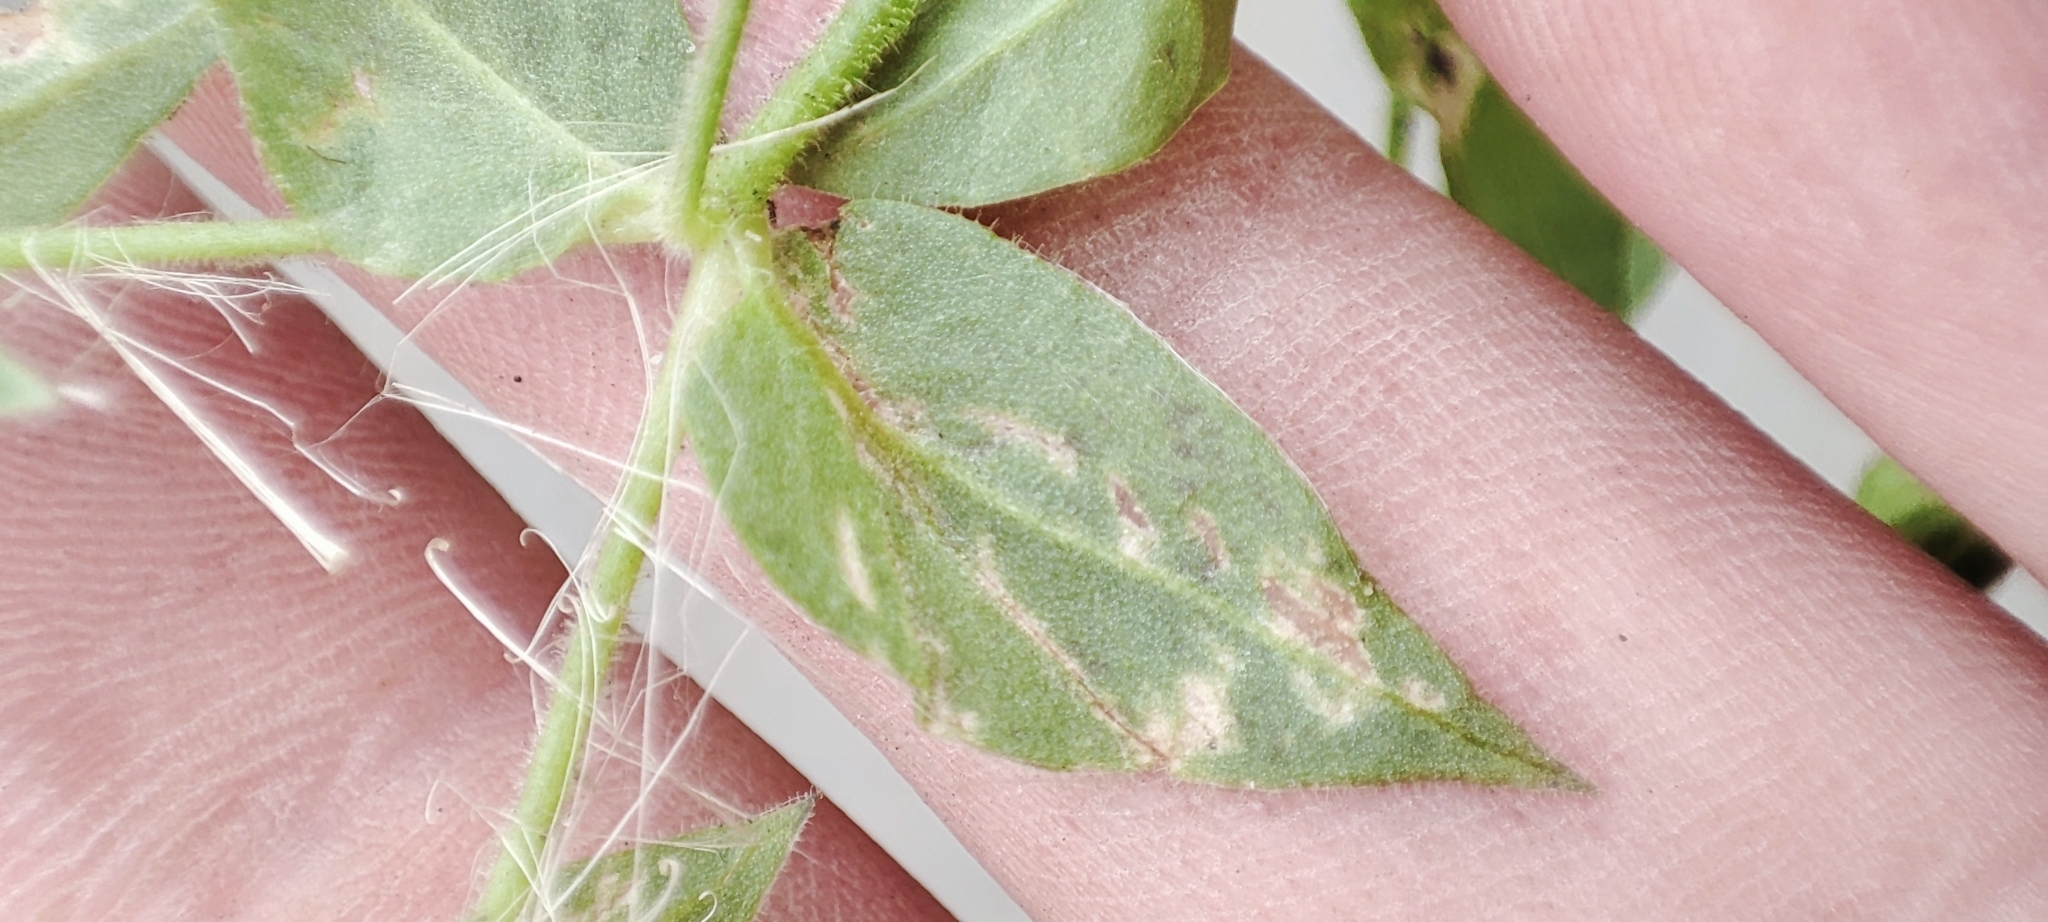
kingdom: Plantae
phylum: Tracheophyta
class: Magnoliopsida
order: Caryophyllales
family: Caryophyllaceae
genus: Stellaria
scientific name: Stellaria aquatica
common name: Water chickweed
